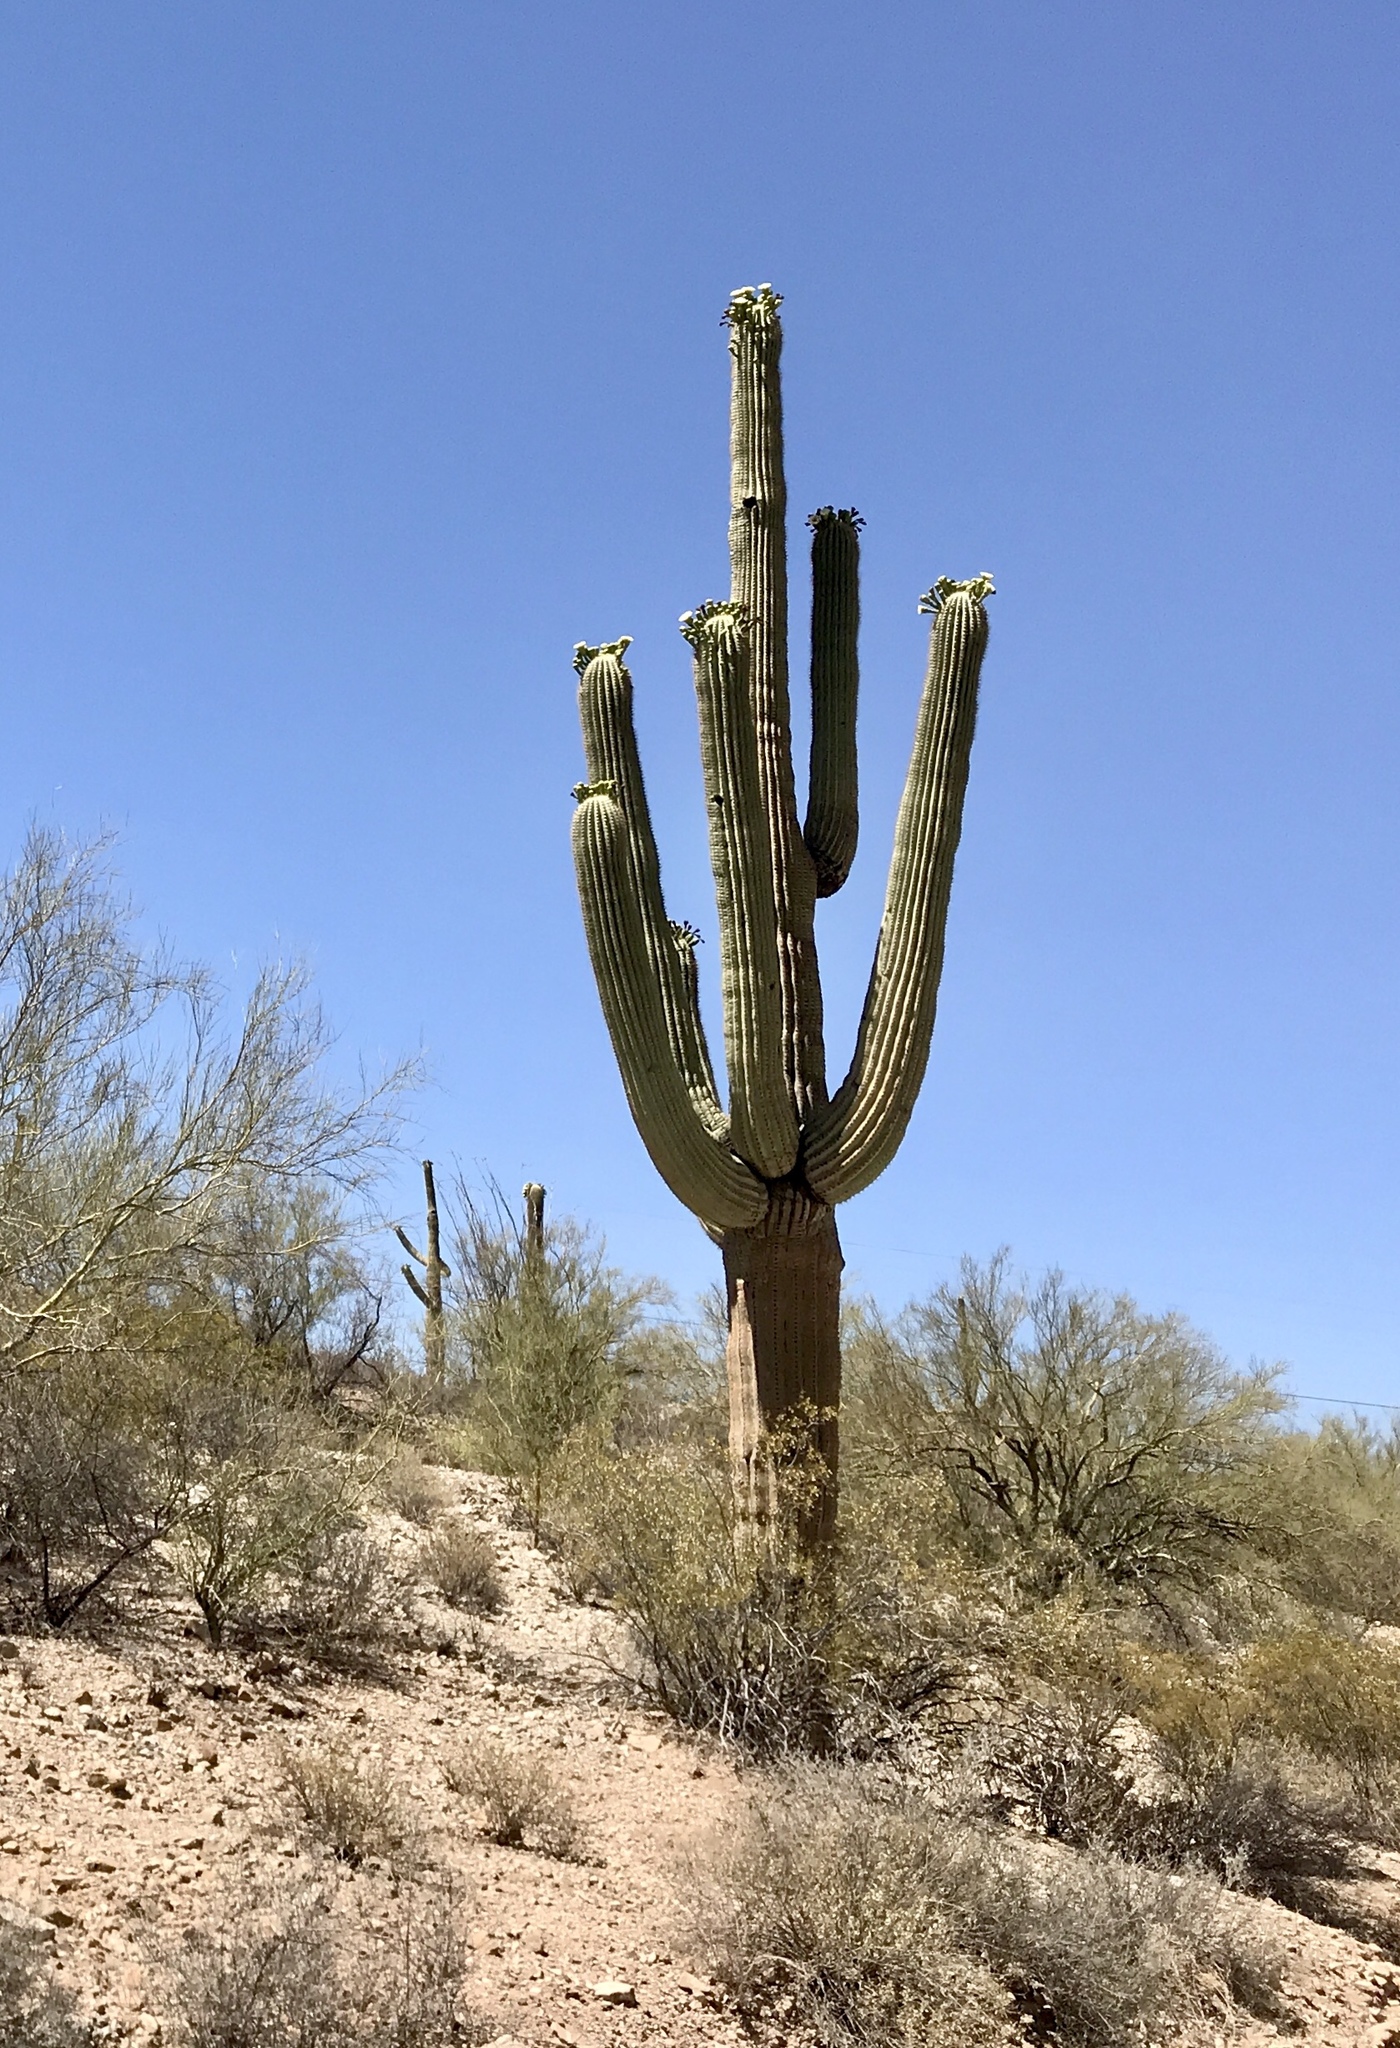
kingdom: Plantae
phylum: Tracheophyta
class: Magnoliopsida
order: Caryophyllales
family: Cactaceae
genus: Carnegiea
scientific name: Carnegiea gigantea
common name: Saguaro
